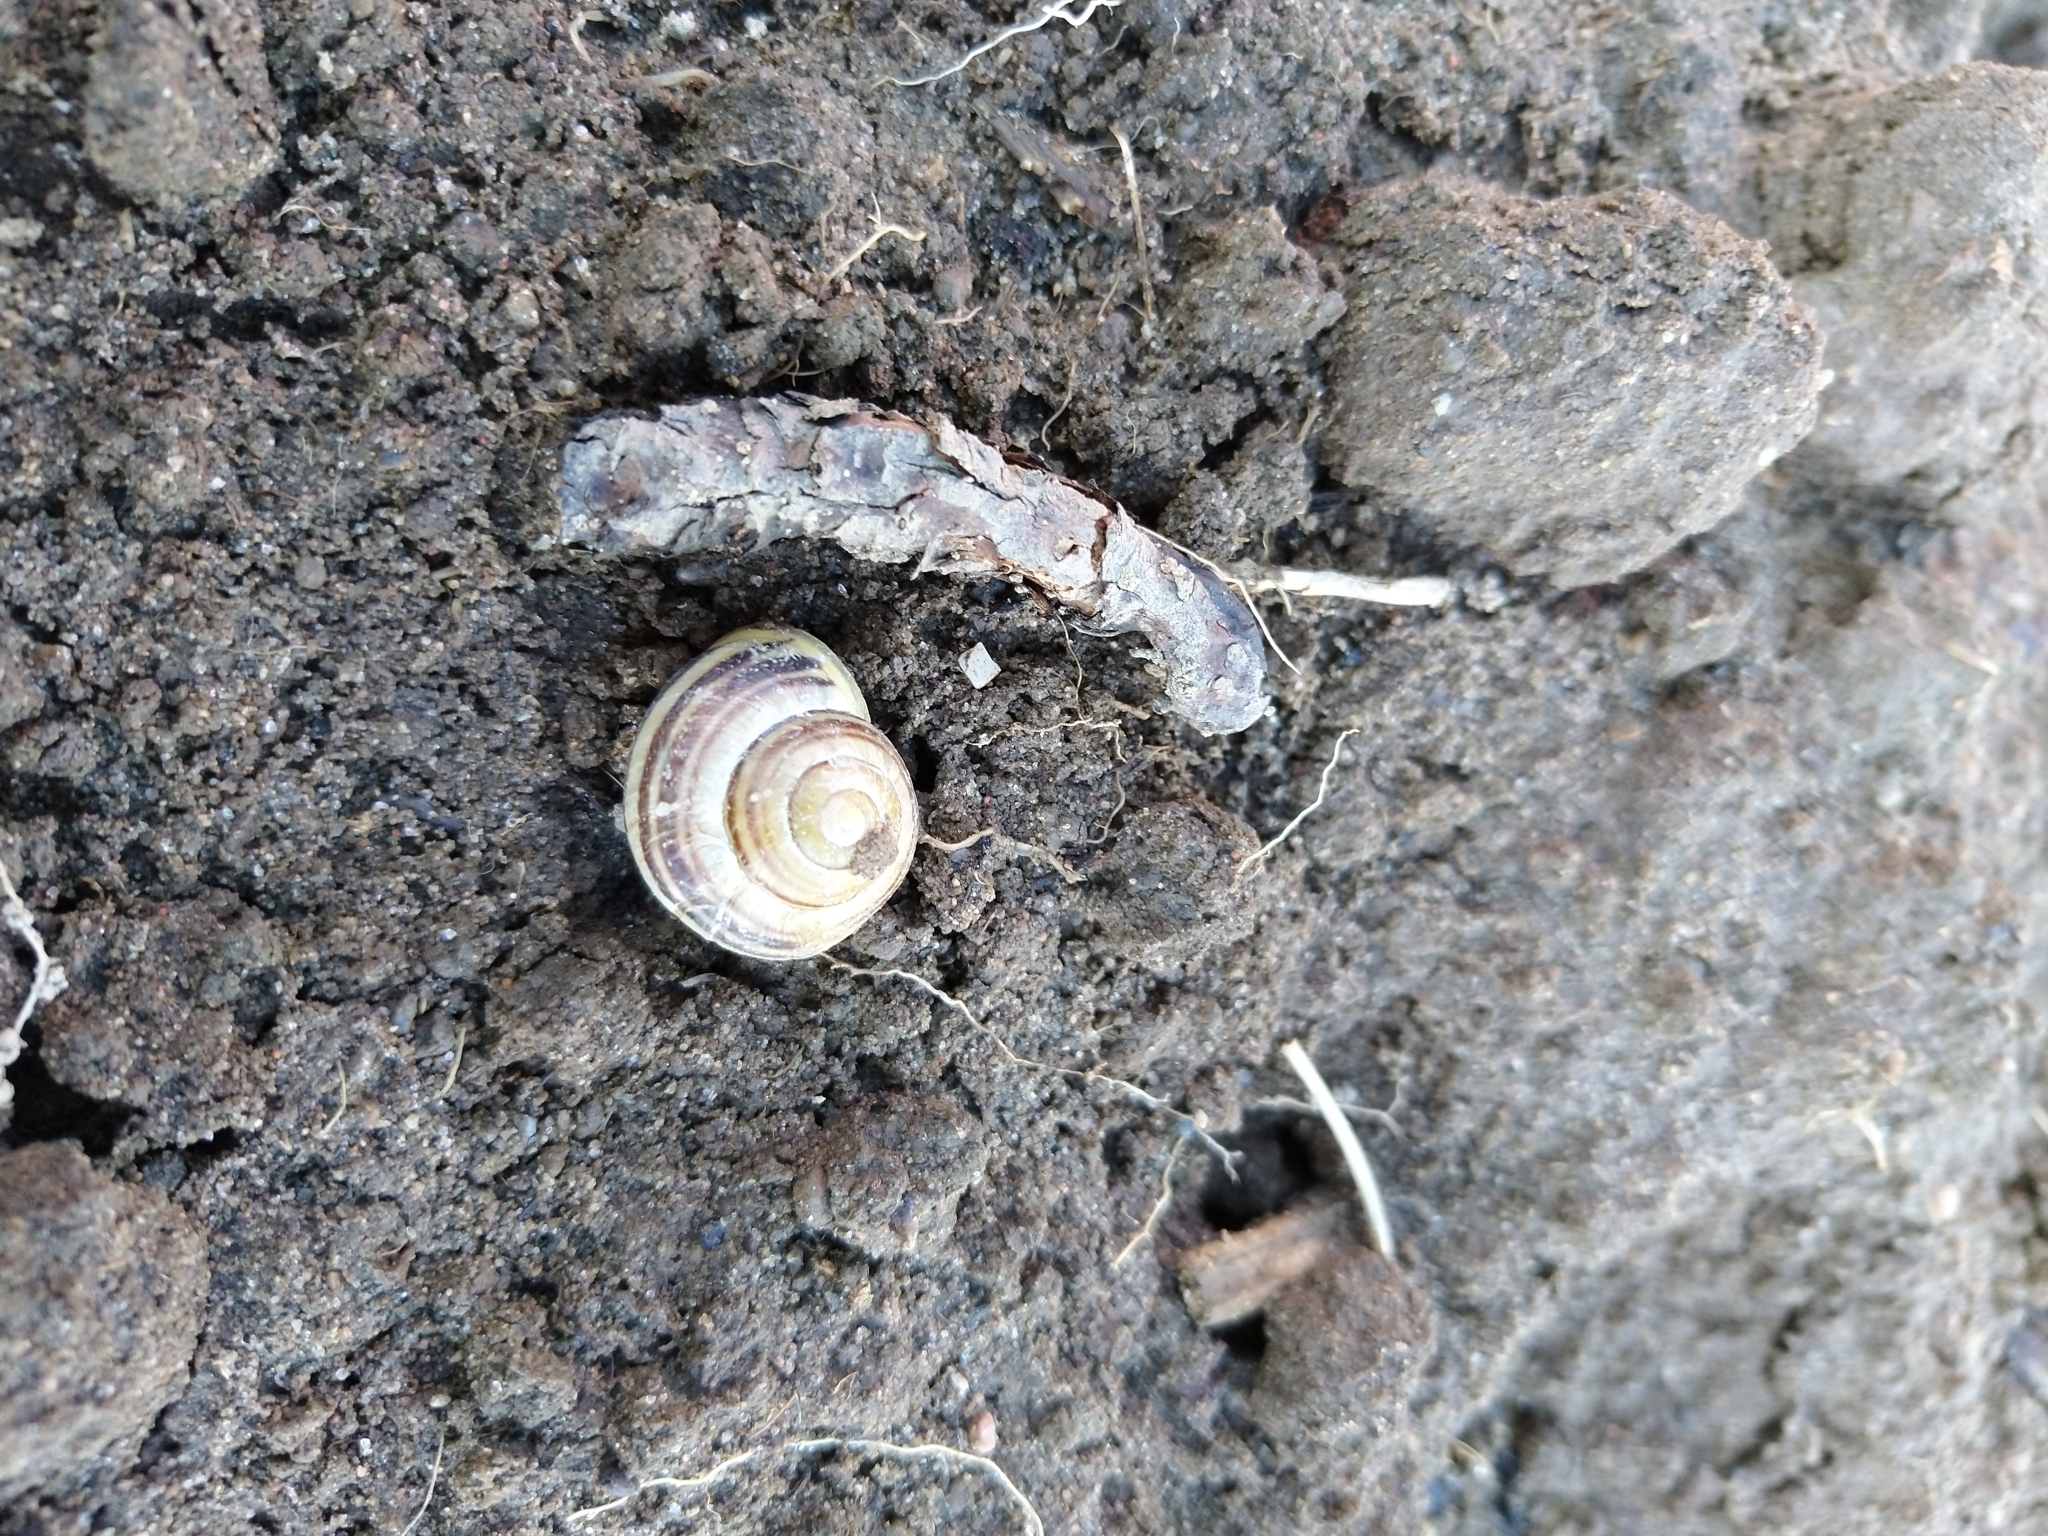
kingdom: Animalia
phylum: Mollusca
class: Gastropoda
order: Stylommatophora
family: Helicidae
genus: Cepaea
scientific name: Cepaea hortensis
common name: White-lip gardensnail
